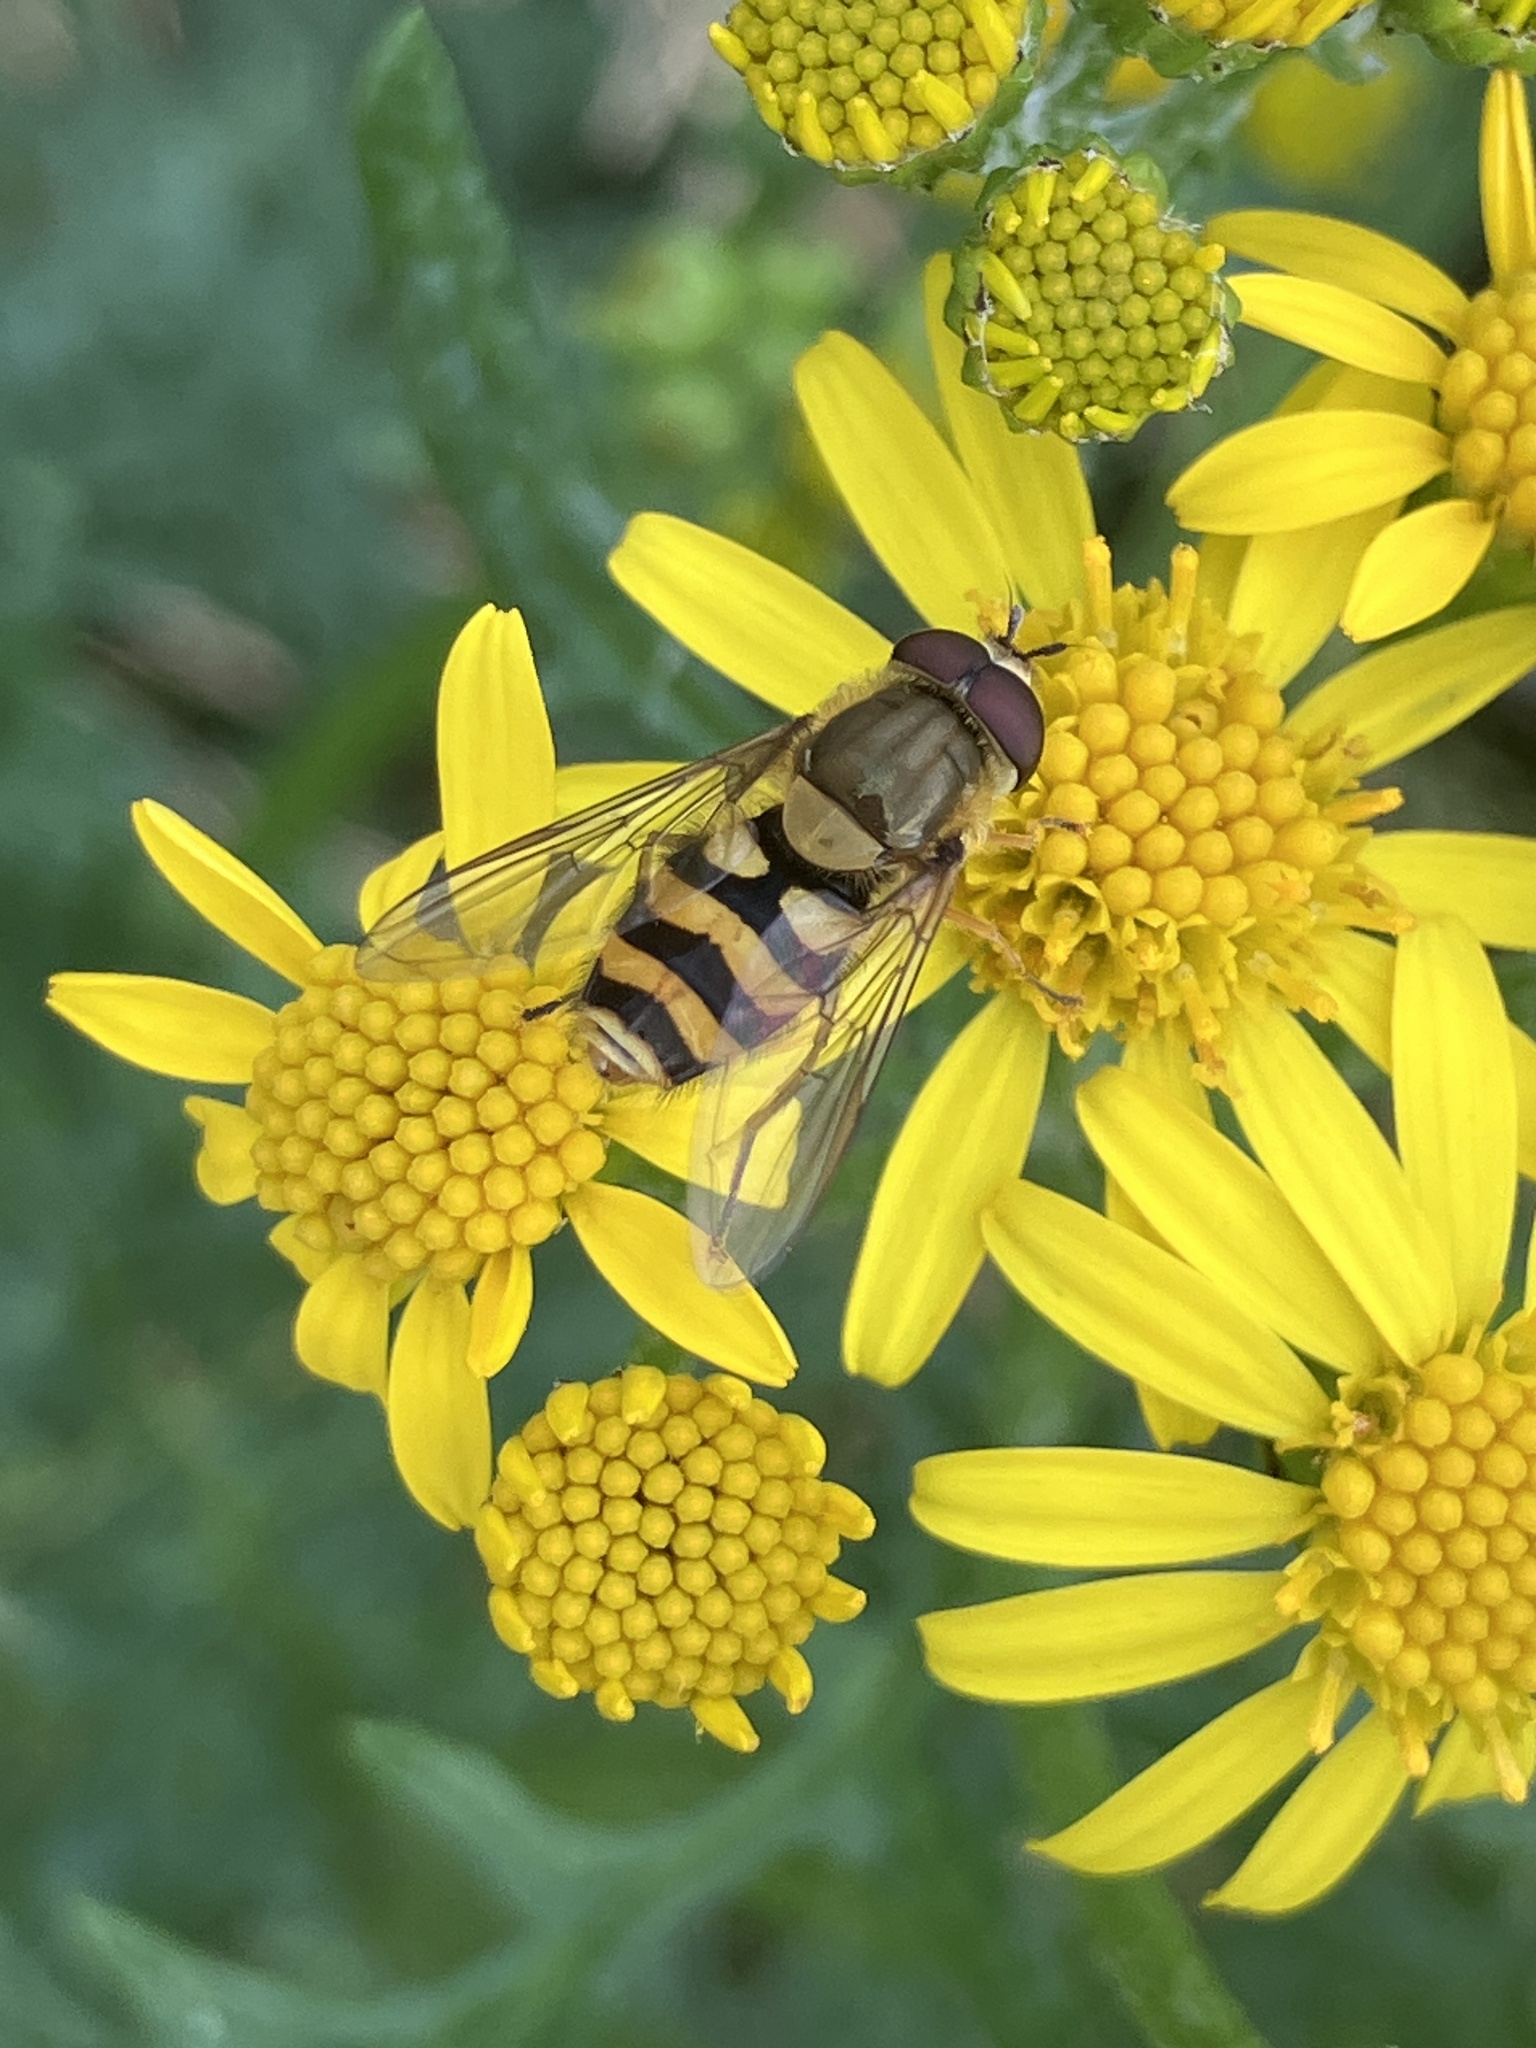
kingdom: Animalia
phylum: Arthropoda
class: Insecta
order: Diptera
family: Syrphidae
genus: Syrphus
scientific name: Syrphus
